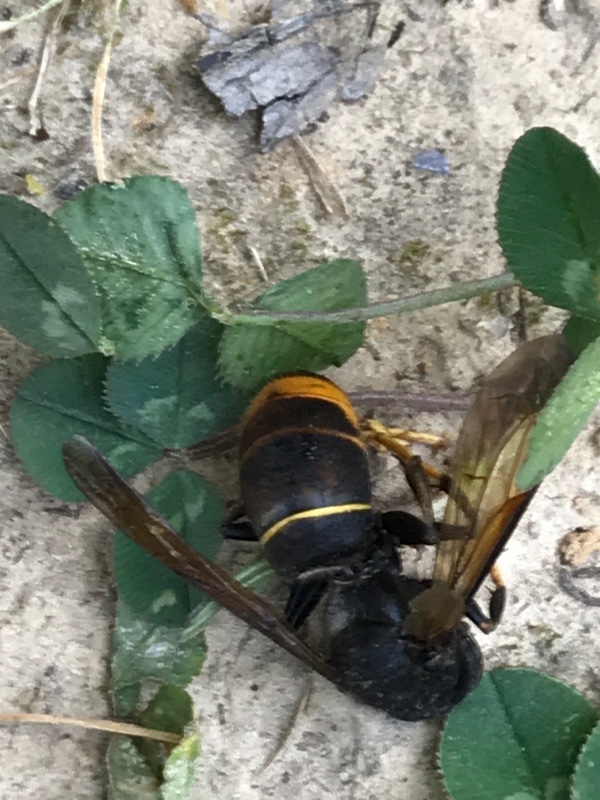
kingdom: Animalia
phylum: Arthropoda
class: Insecta
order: Hymenoptera
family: Vespidae
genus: Vespa
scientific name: Vespa velutina
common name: Asian hornet
